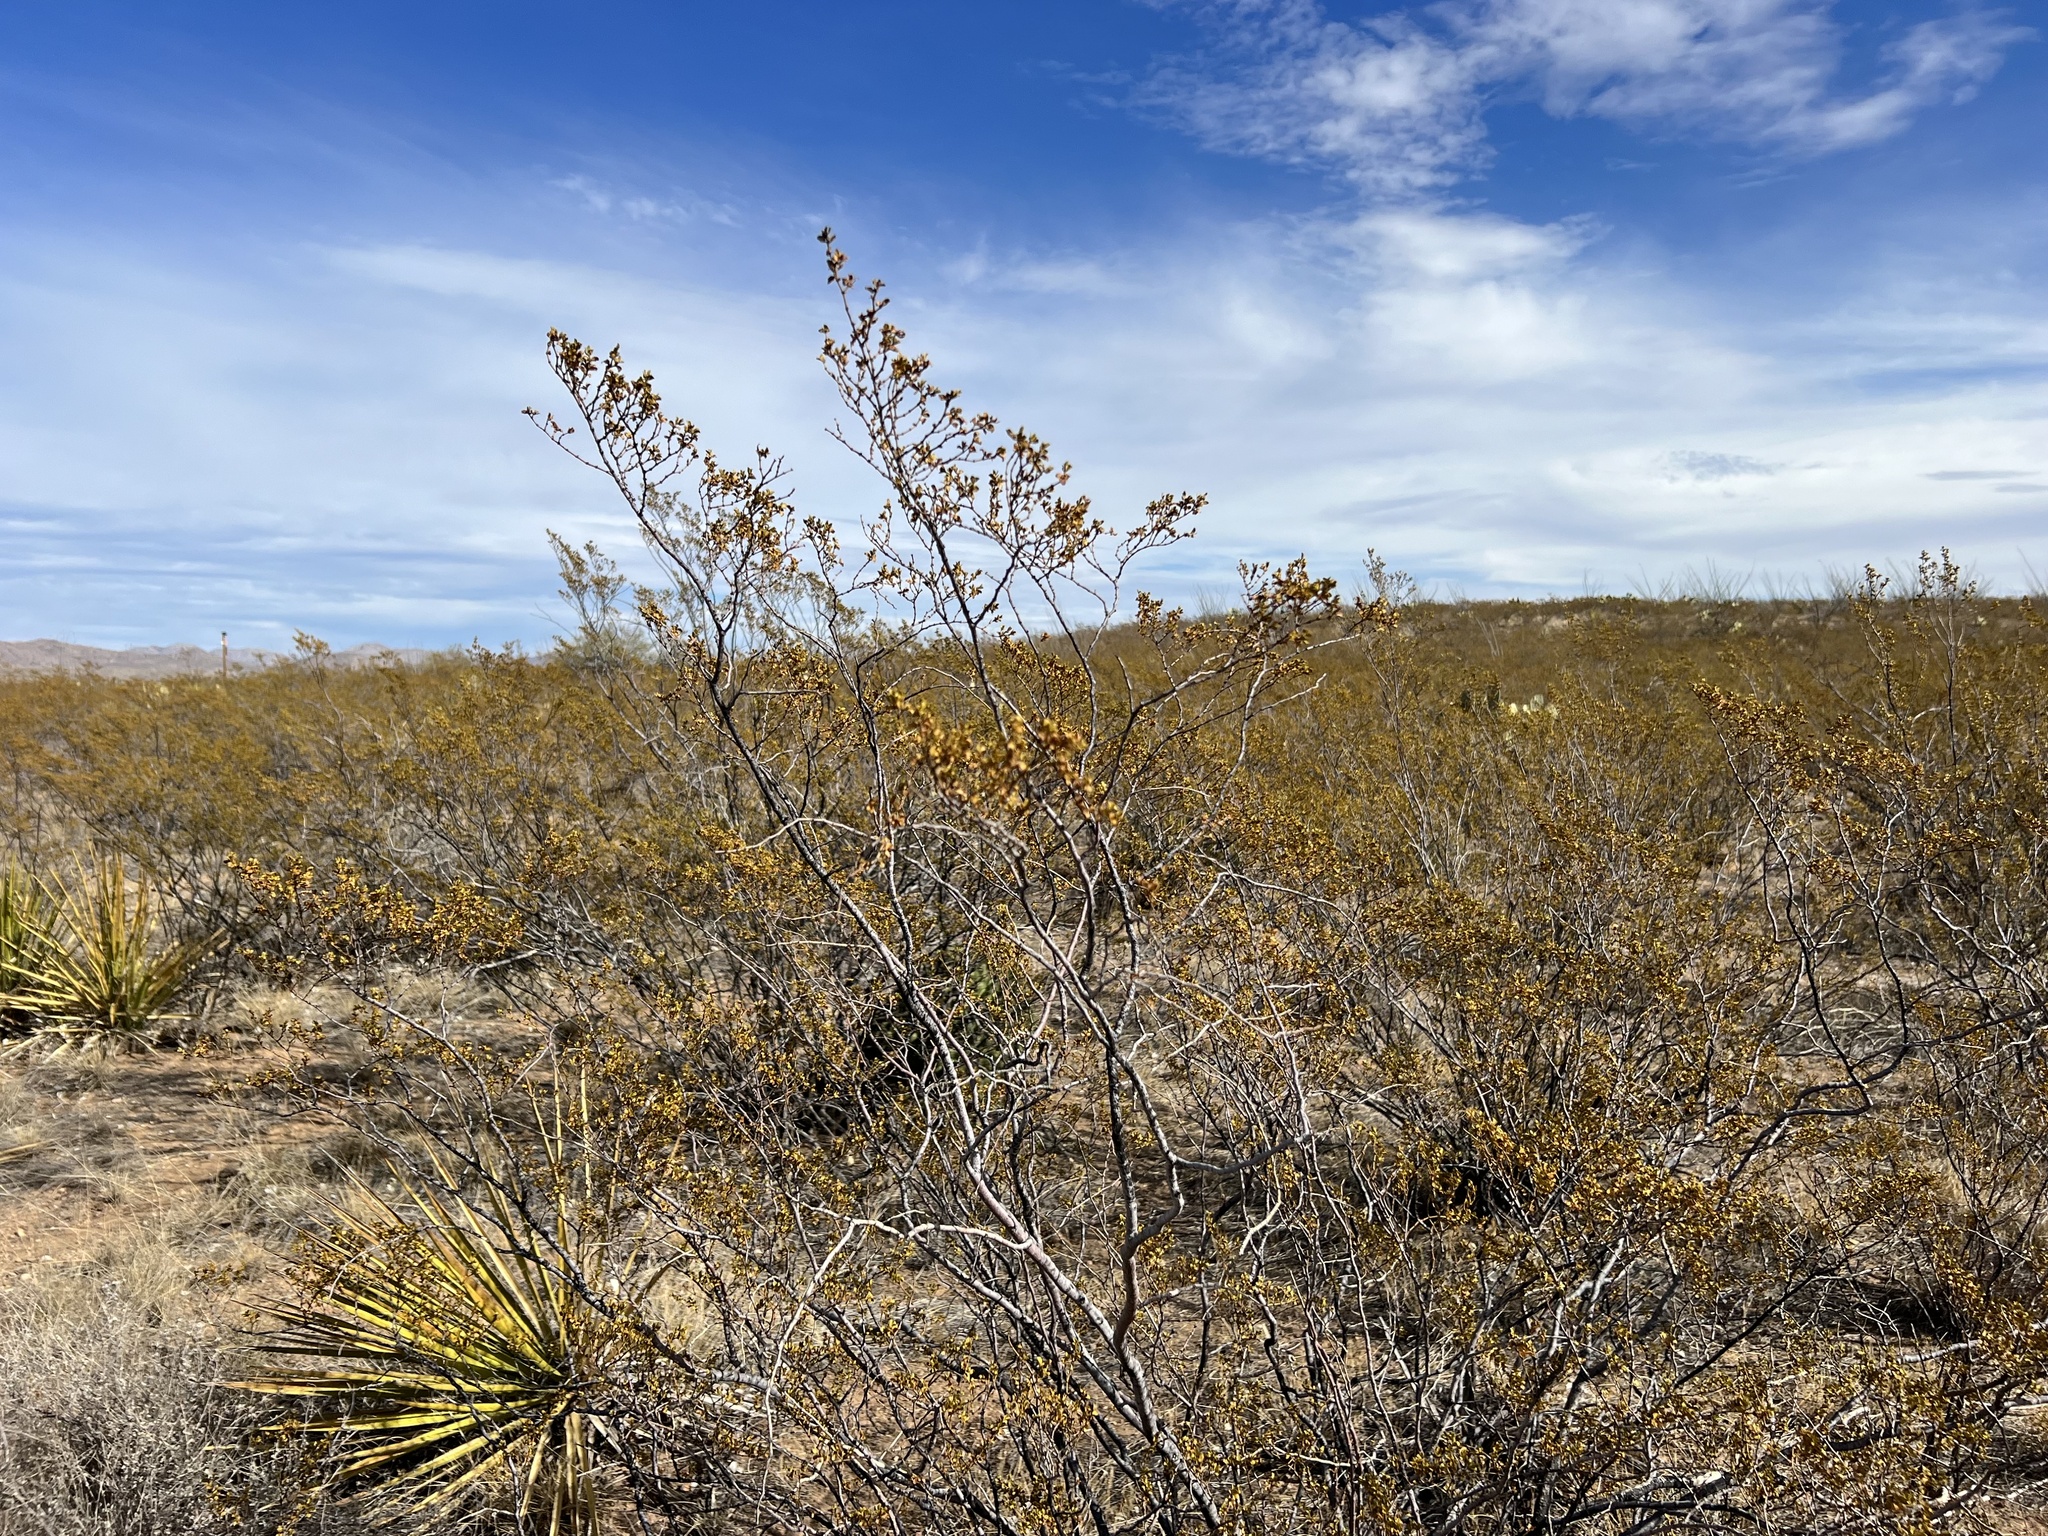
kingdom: Plantae
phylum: Tracheophyta
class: Magnoliopsida
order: Zygophyllales
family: Zygophyllaceae
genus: Larrea
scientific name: Larrea tridentata
